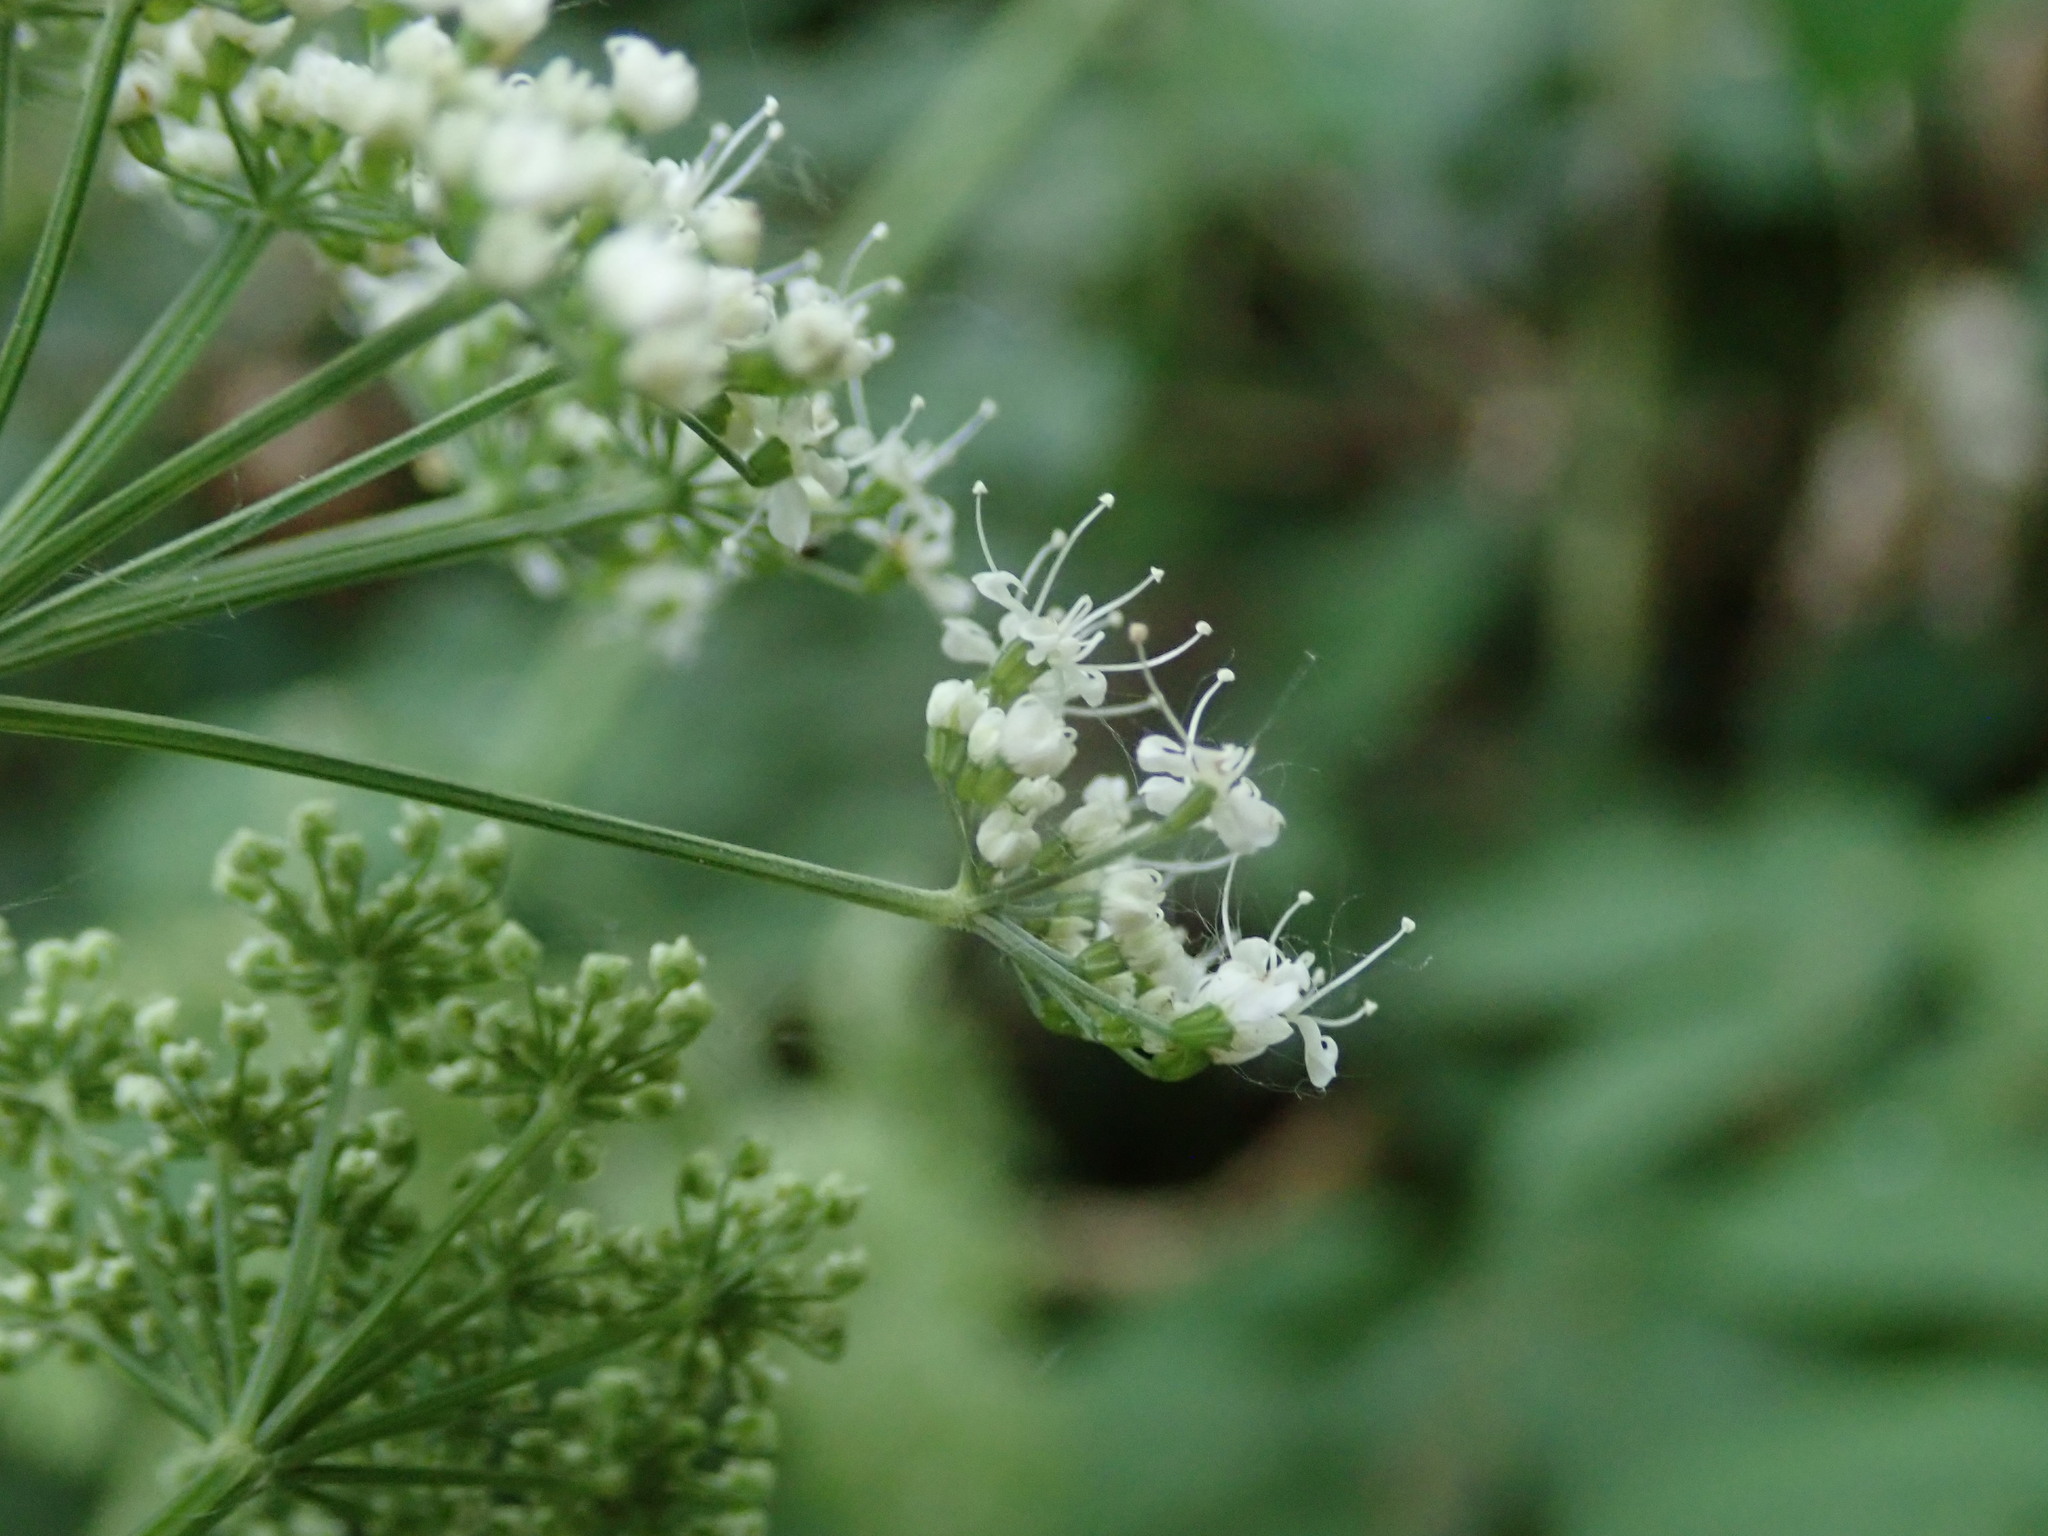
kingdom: Plantae
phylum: Tracheophyta
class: Magnoliopsida
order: Apiales
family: Apiaceae
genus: Aegopodium
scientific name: Aegopodium podagraria
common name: Ground-elder
